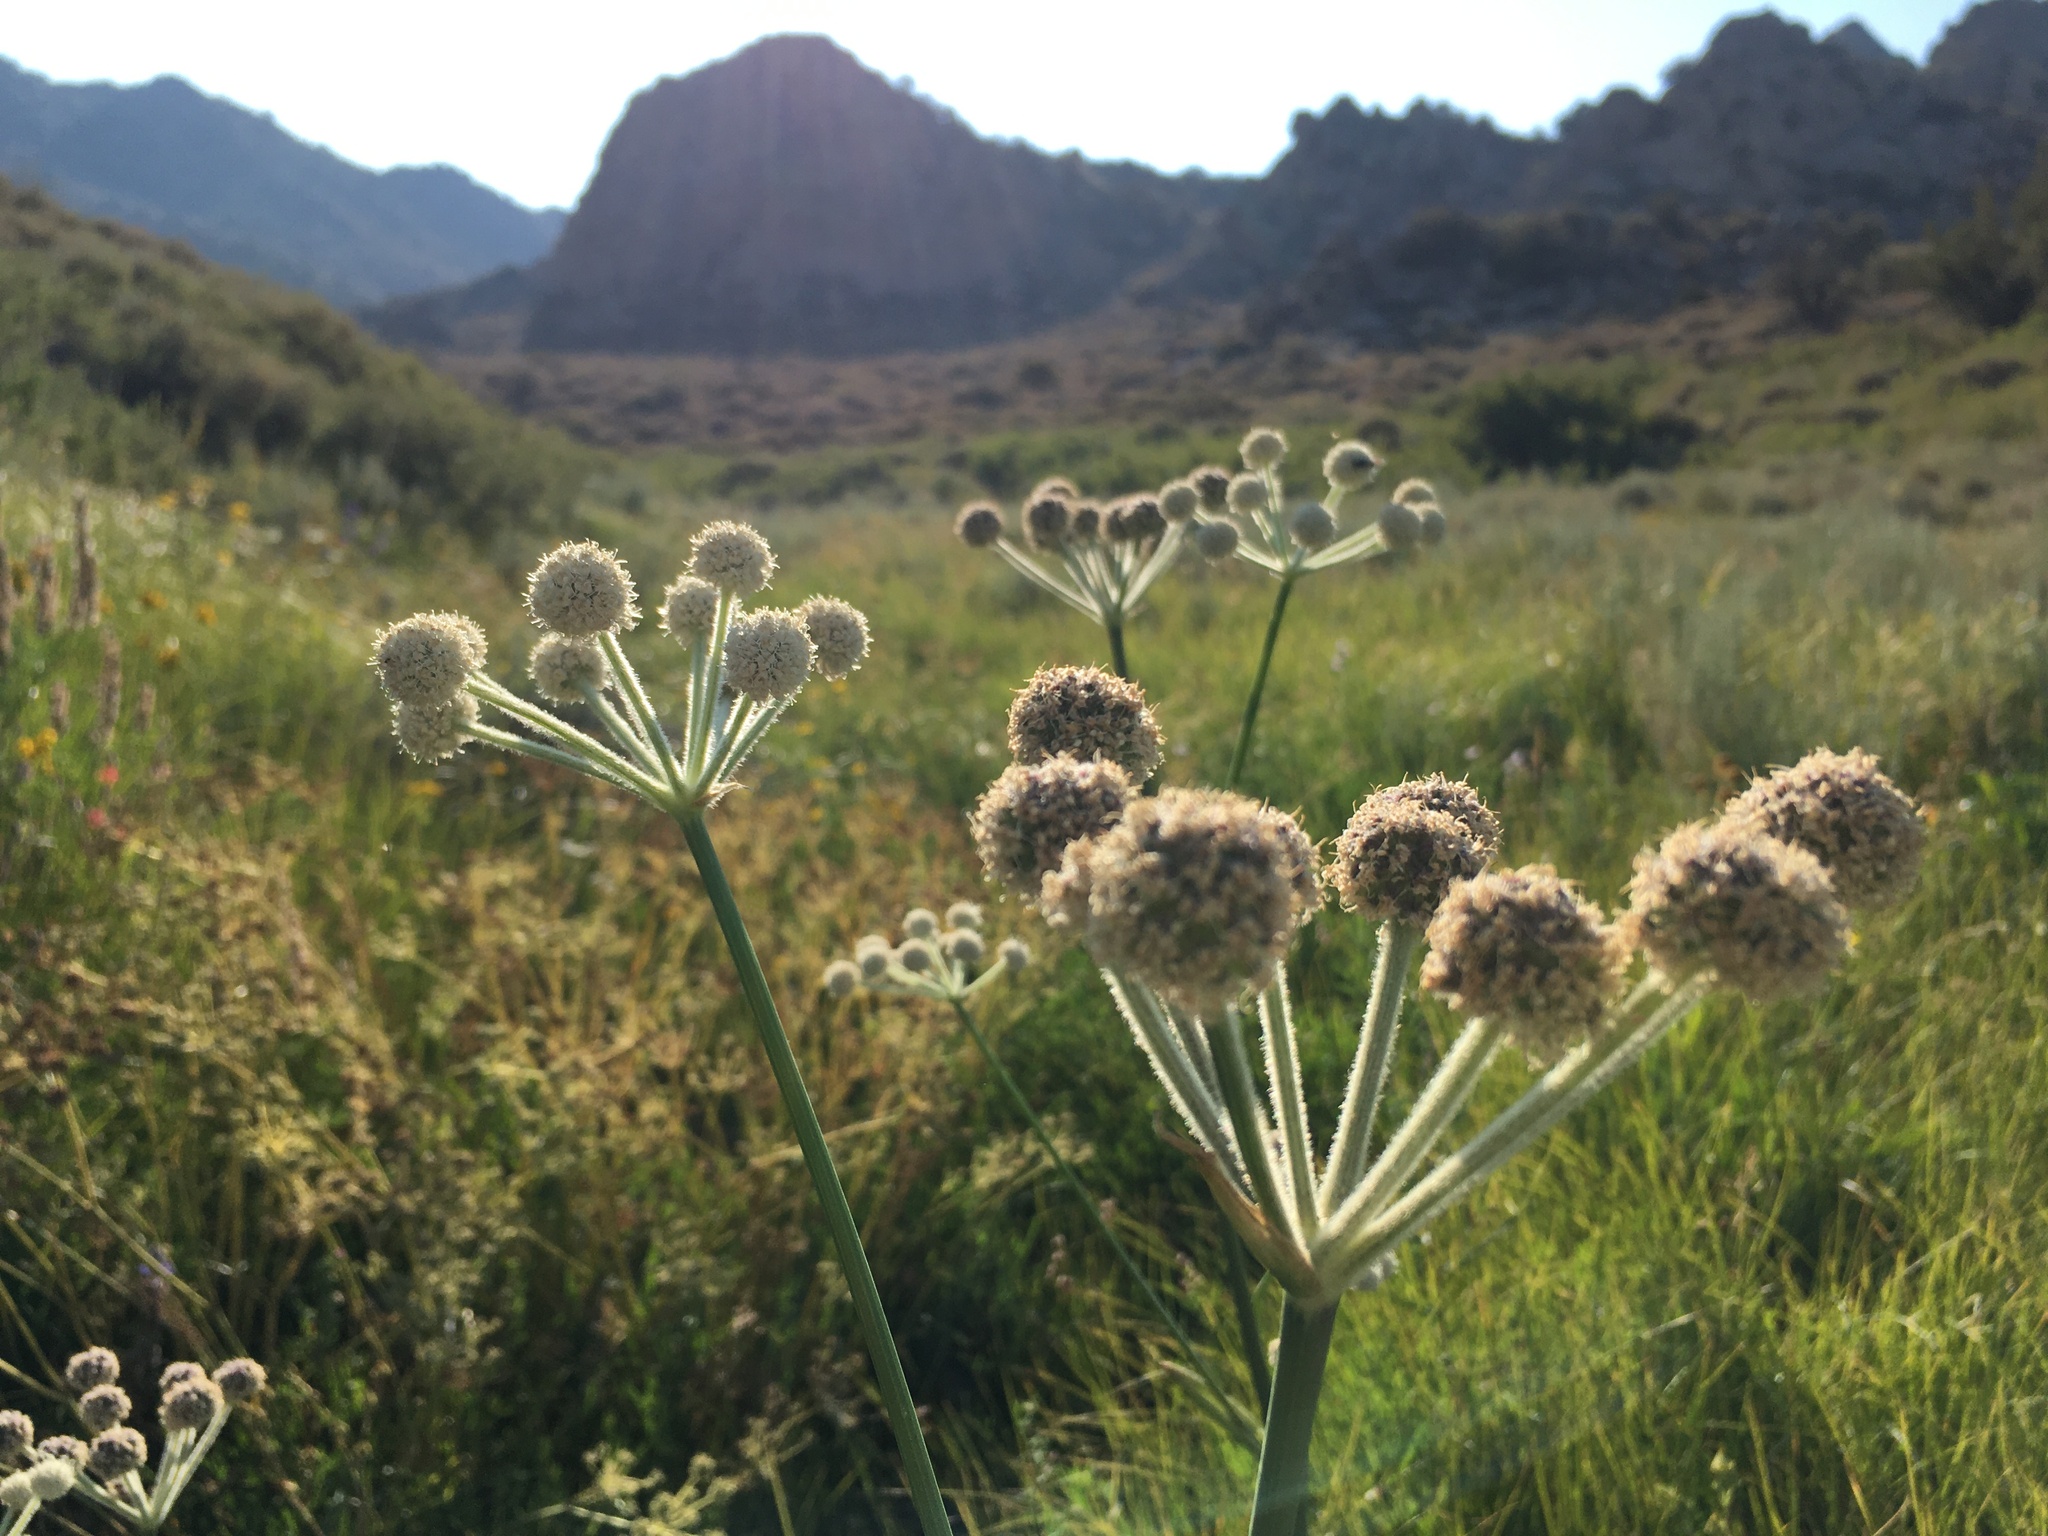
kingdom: Plantae
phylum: Tracheophyta
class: Magnoliopsida
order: Apiales
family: Apiaceae
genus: Angelica
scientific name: Angelica capitellata
